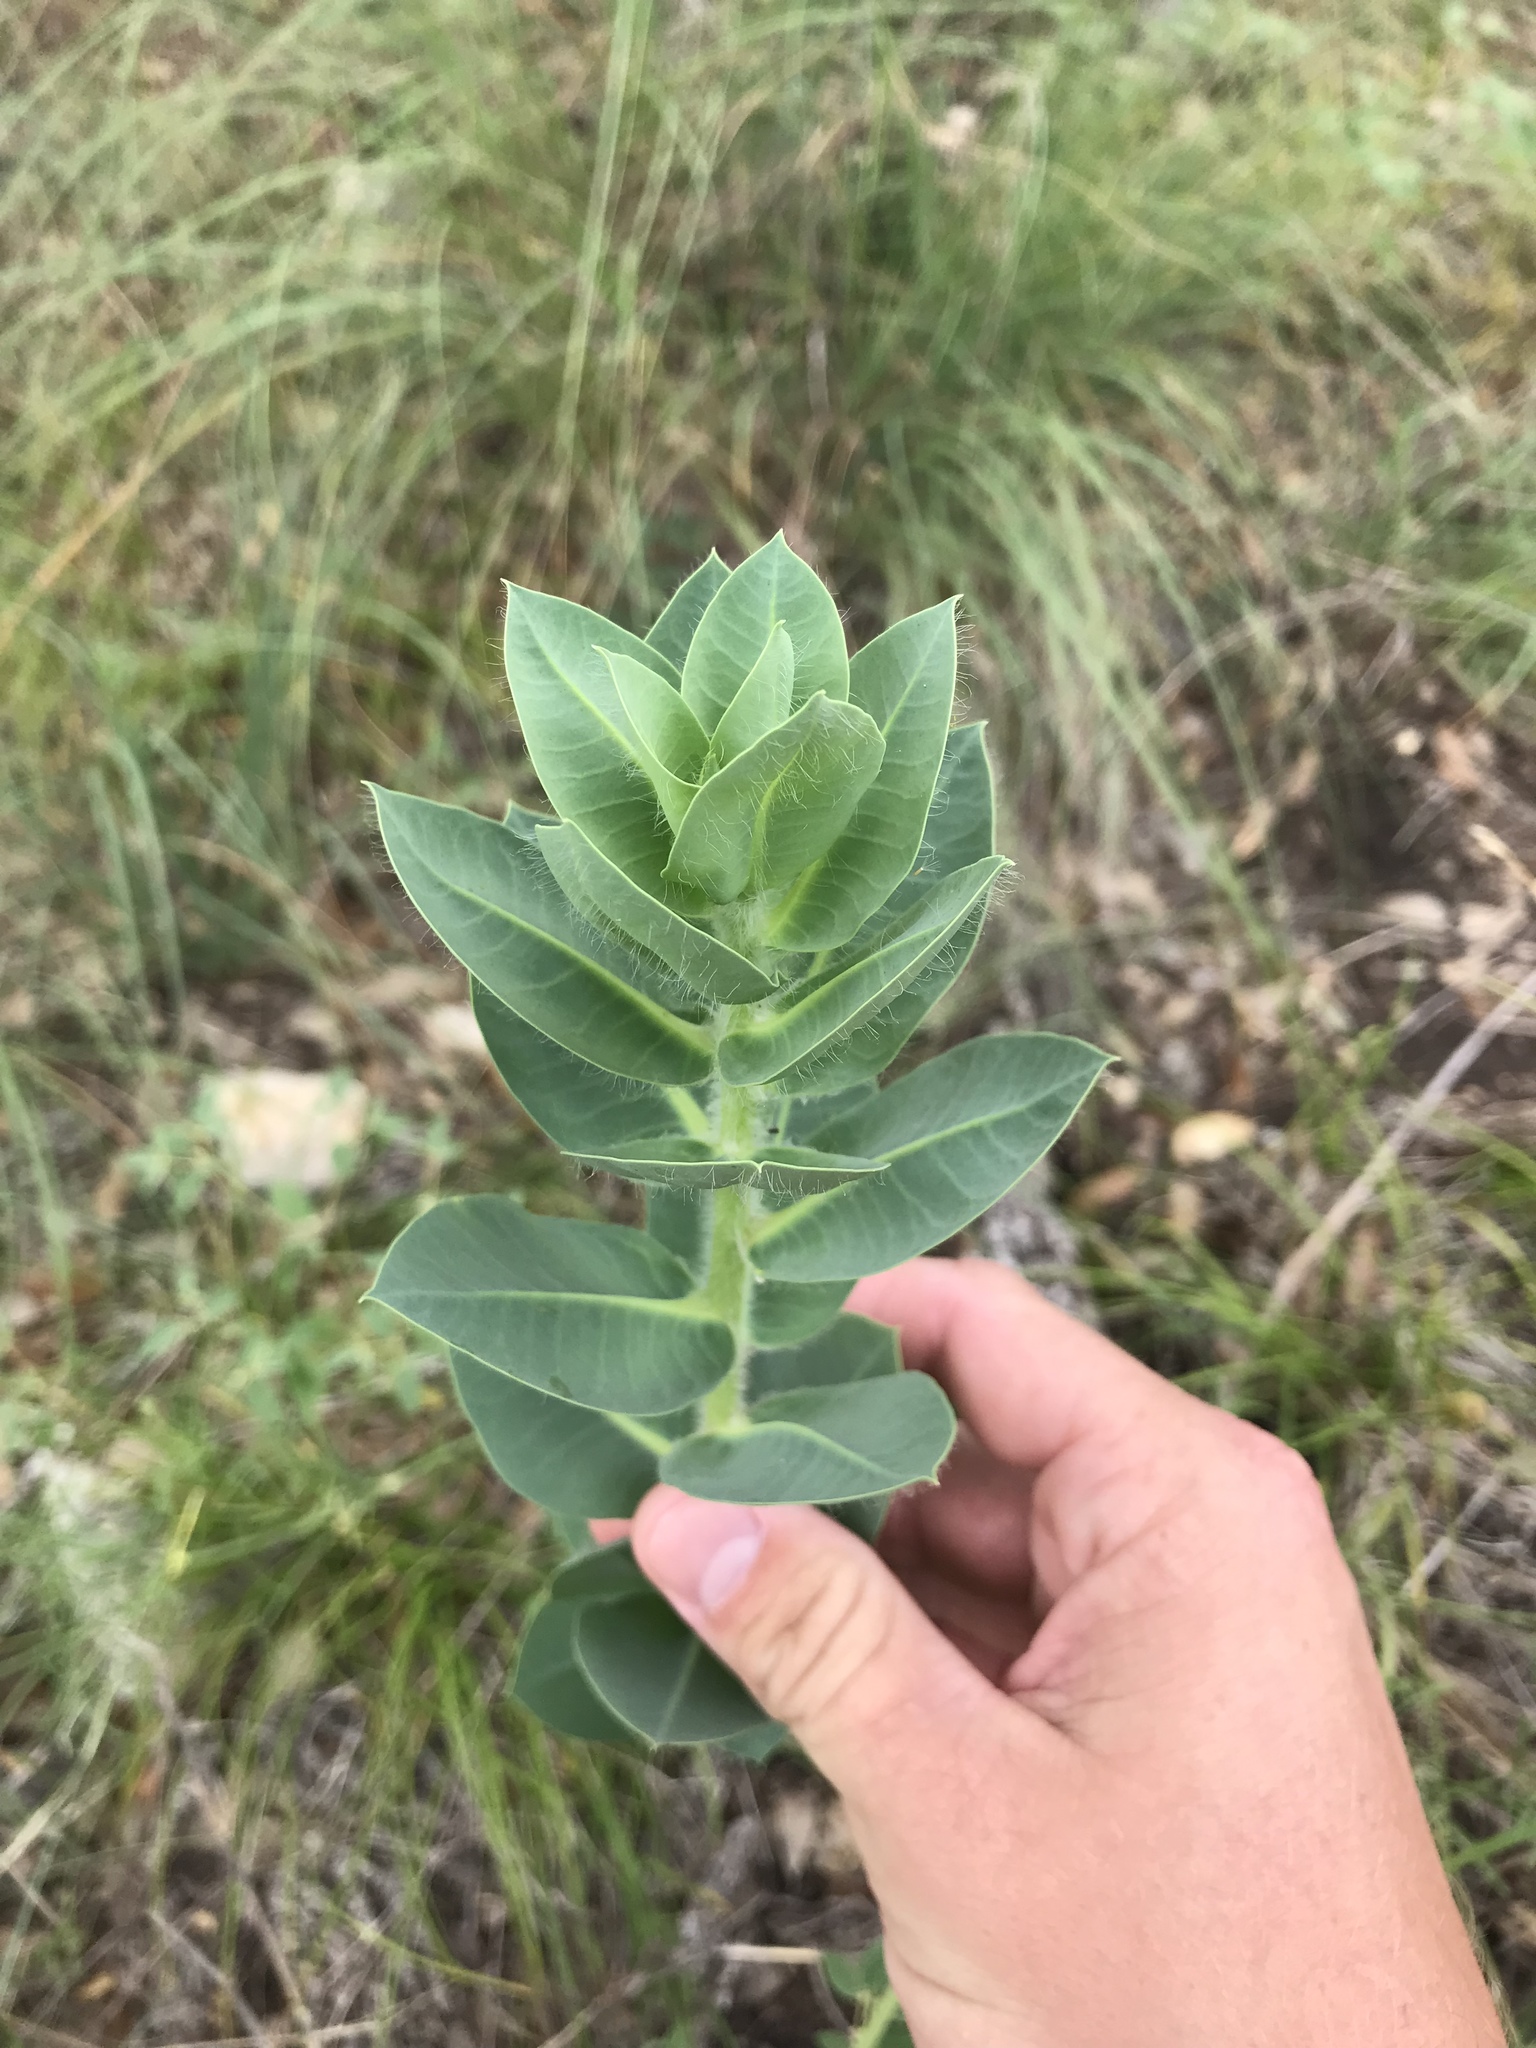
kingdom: Plantae
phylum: Tracheophyta
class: Magnoliopsida
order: Malpighiales
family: Euphorbiaceae
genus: Euphorbia
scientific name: Euphorbia marginata
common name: Ghostweed
